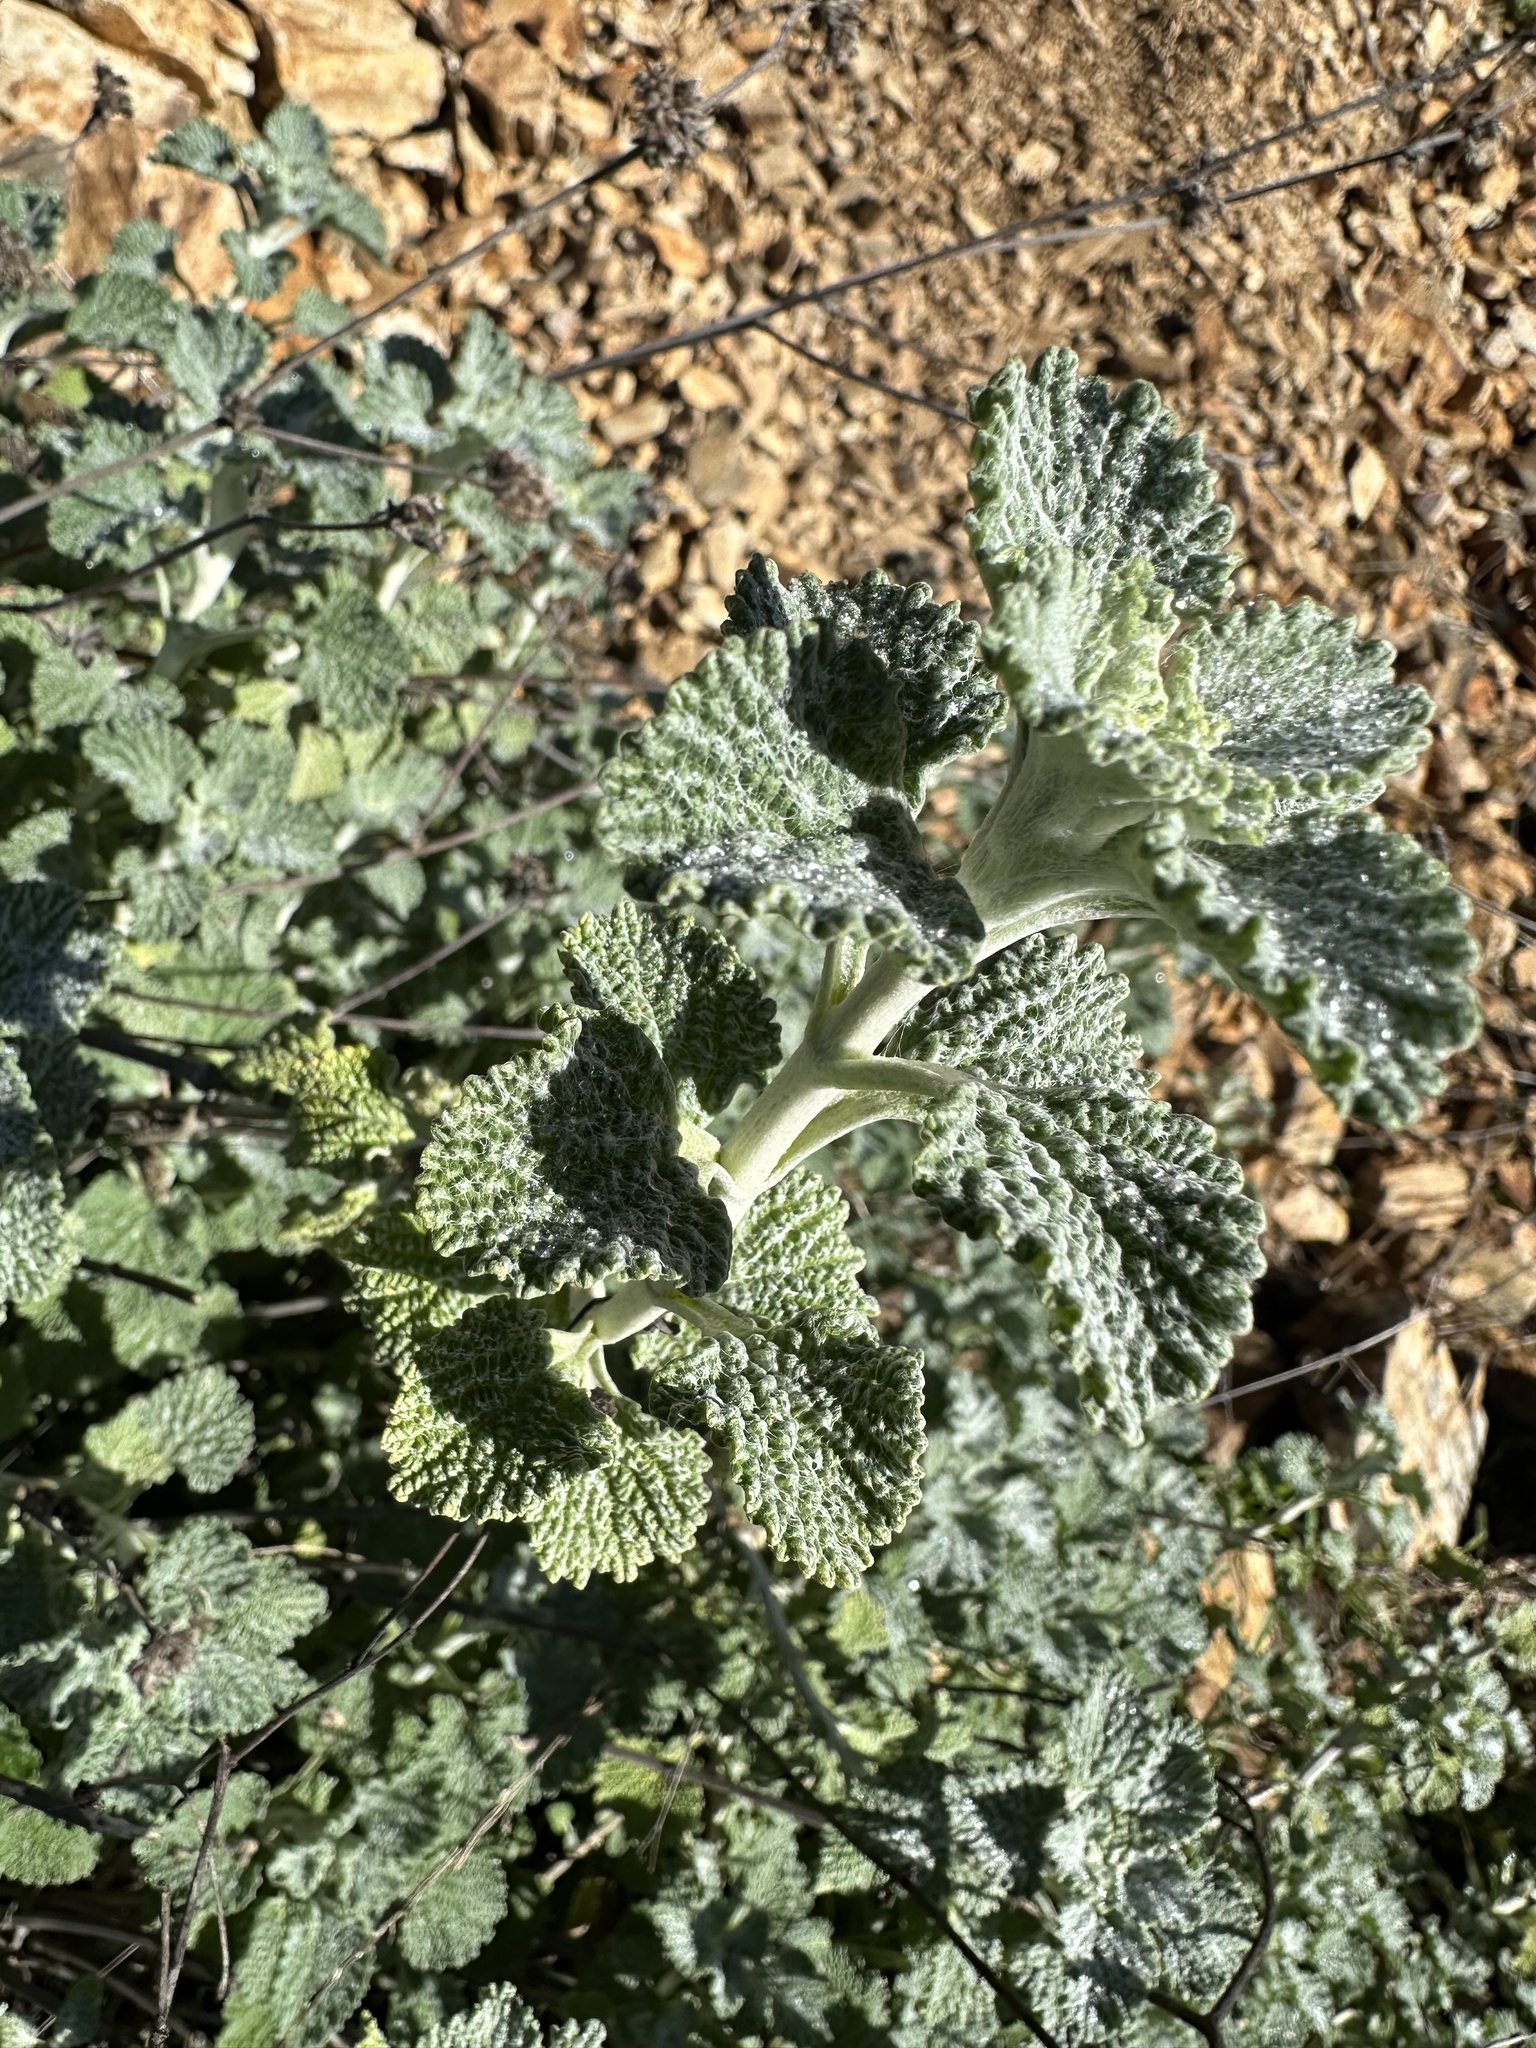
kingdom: Plantae
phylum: Tracheophyta
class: Magnoliopsida
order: Lamiales
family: Lamiaceae
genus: Marrubium
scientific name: Marrubium vulgare
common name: Horehound
